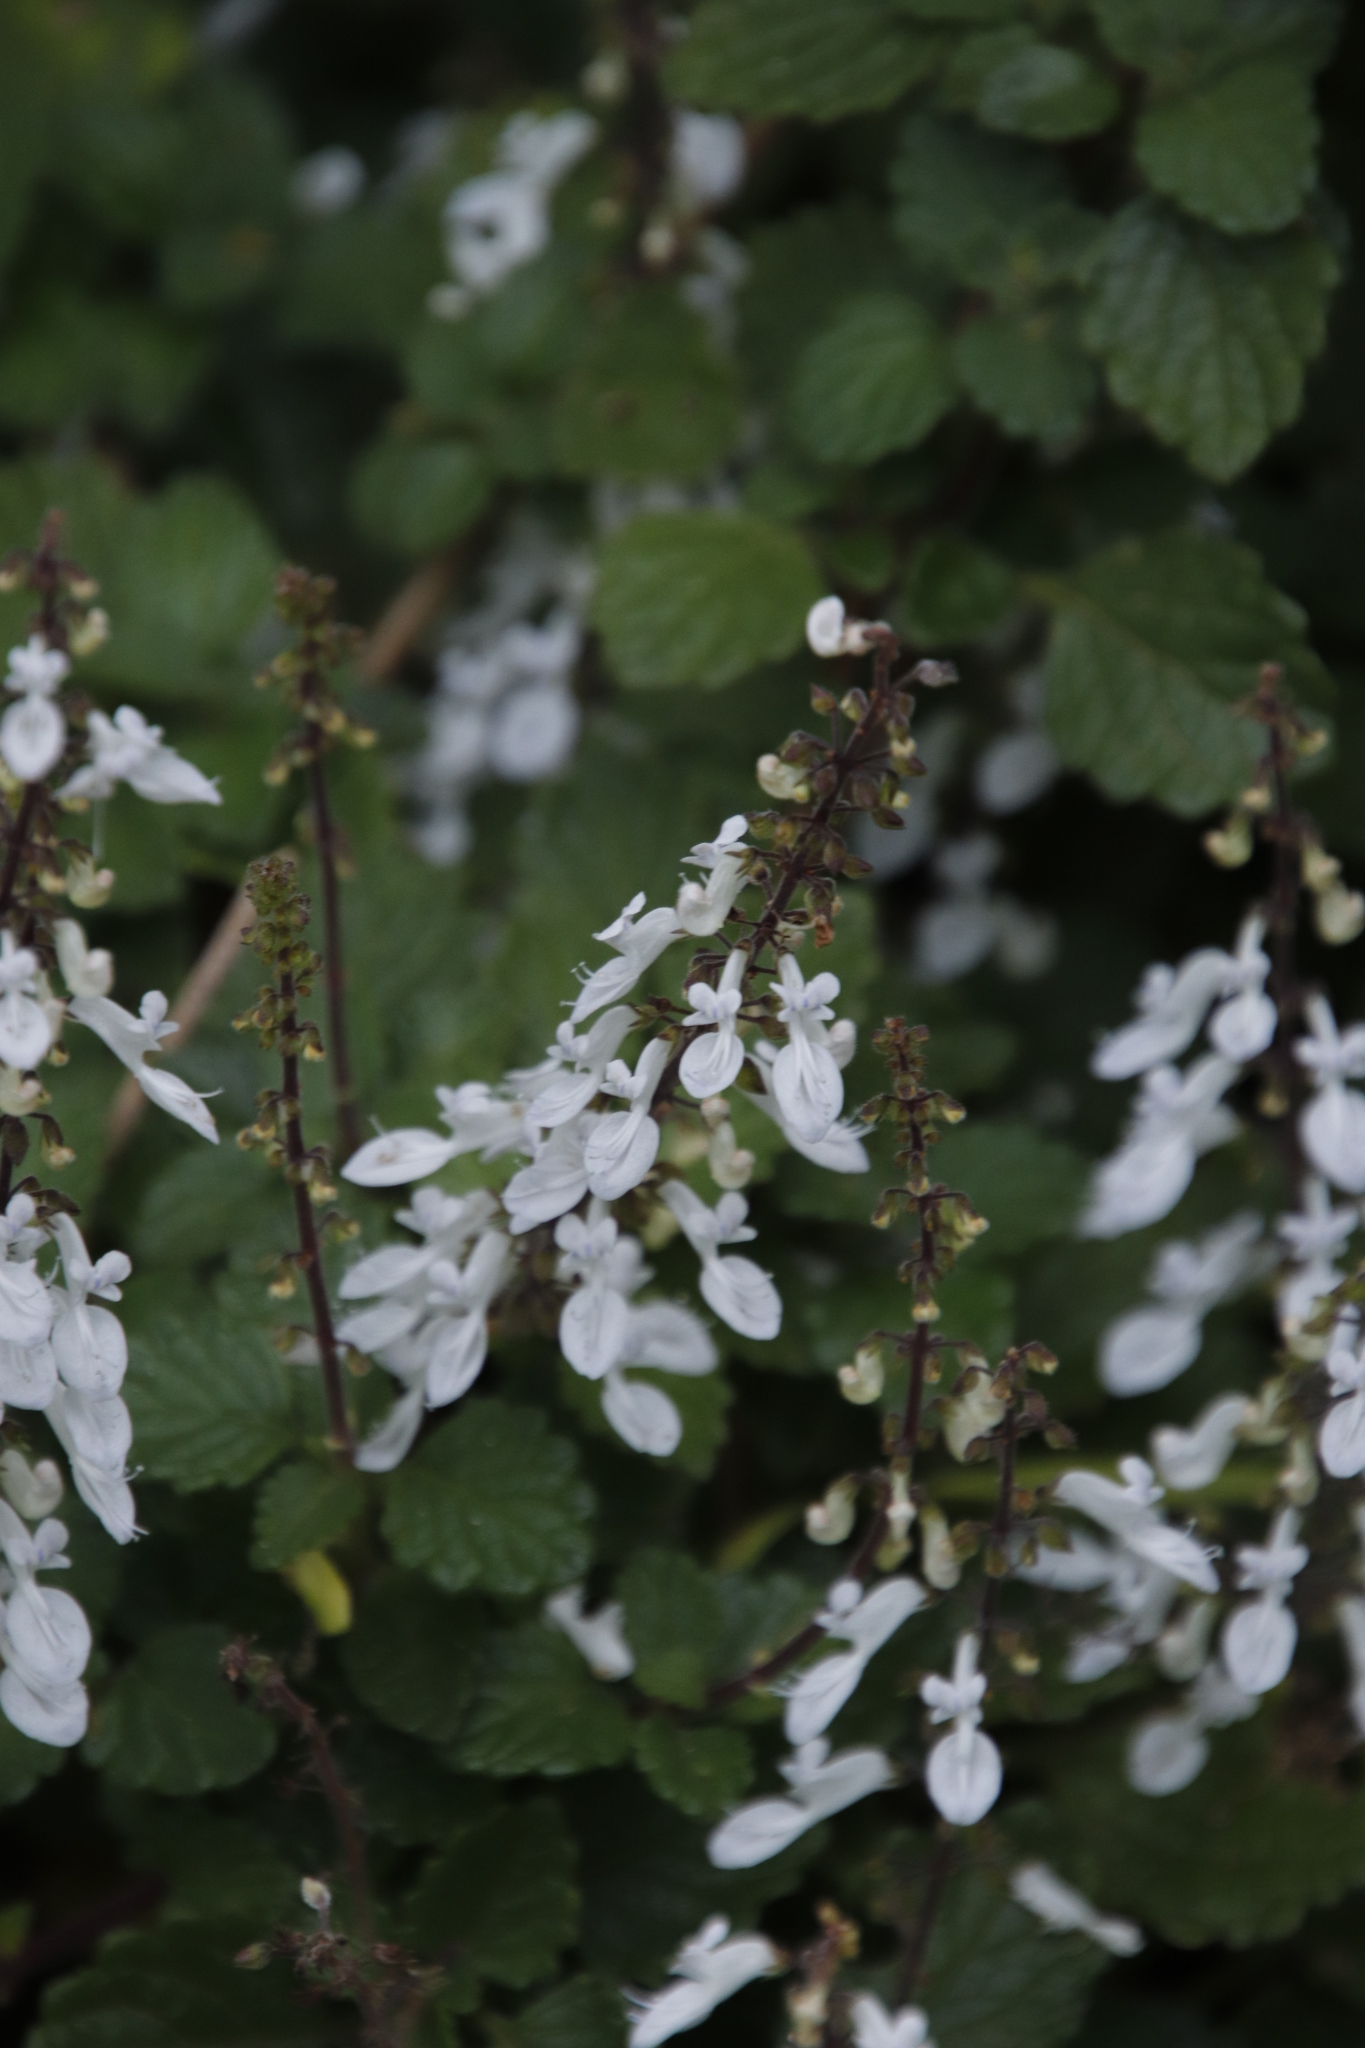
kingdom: Plantae
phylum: Tracheophyta
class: Magnoliopsida
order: Lamiales
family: Lamiaceae
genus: Coleus
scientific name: Coleus madagascariensis
